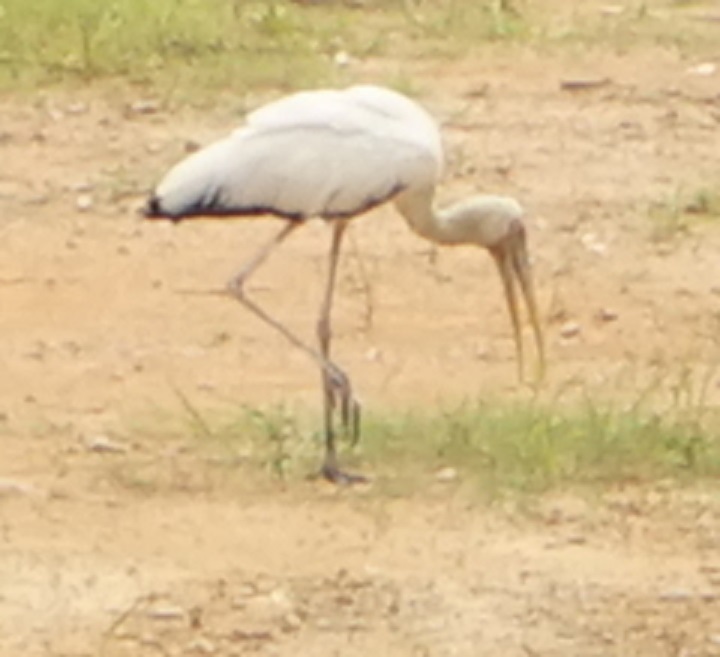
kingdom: Animalia
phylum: Chordata
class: Aves
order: Ciconiiformes
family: Ciconiidae
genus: Mycteria
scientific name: Mycteria cinerea
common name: Milky stork
